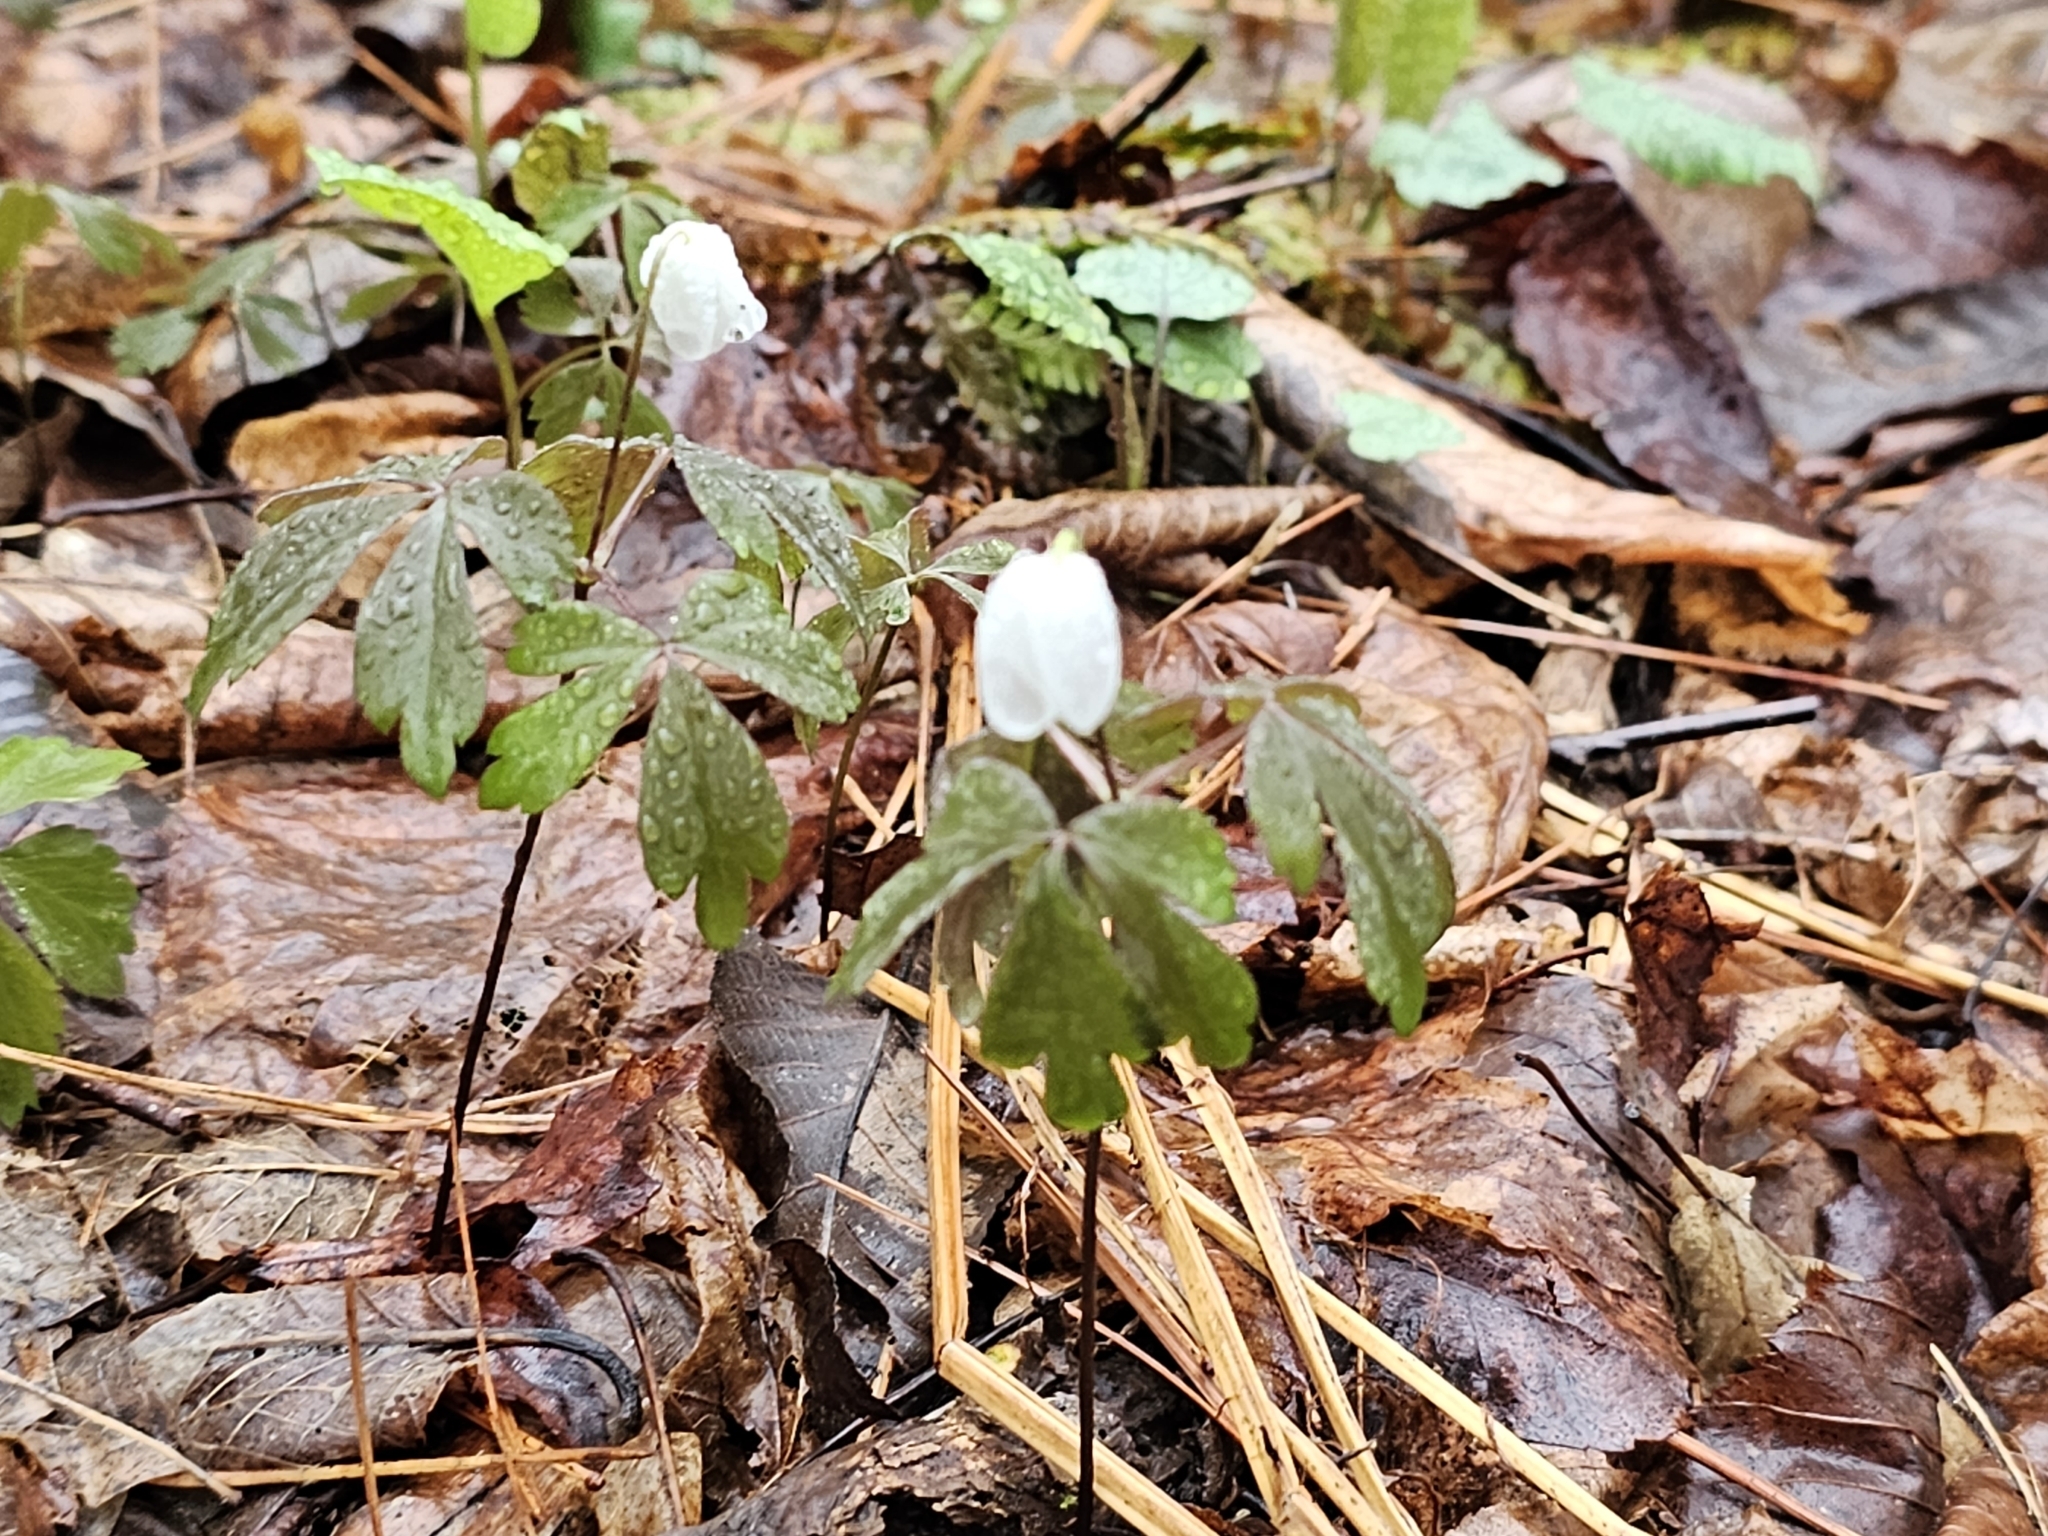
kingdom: Plantae
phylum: Tracheophyta
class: Magnoliopsida
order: Ranunculales
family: Ranunculaceae
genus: Anemone
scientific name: Anemone quinquefolia
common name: Wood anemone
